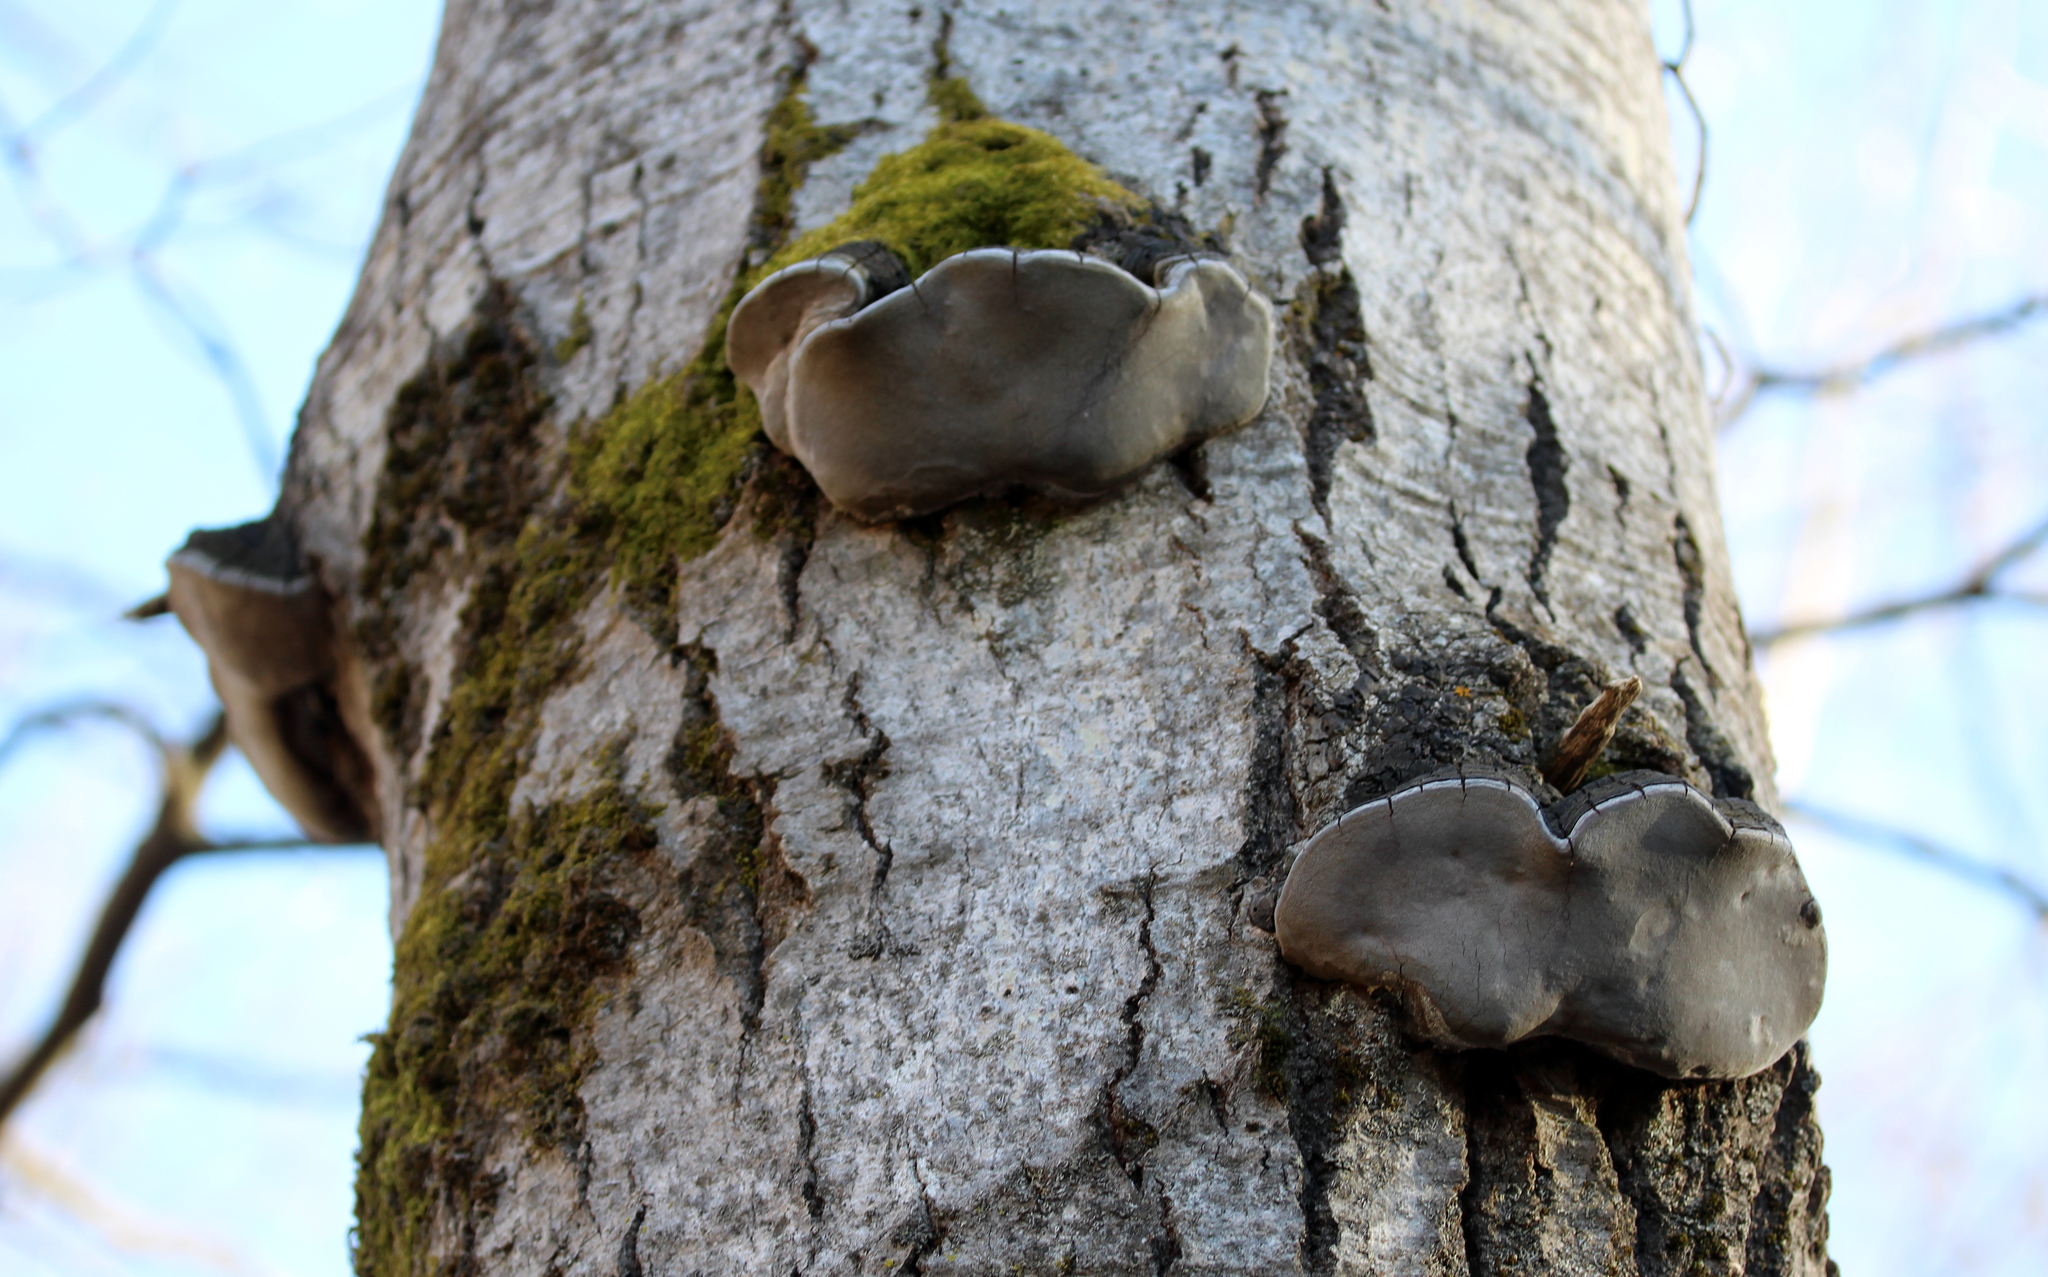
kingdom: Fungi
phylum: Basidiomycota
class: Agaricomycetes
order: Hymenochaetales
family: Hymenochaetaceae
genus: Phellinus
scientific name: Phellinus tremulae
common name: Aspen bracket
